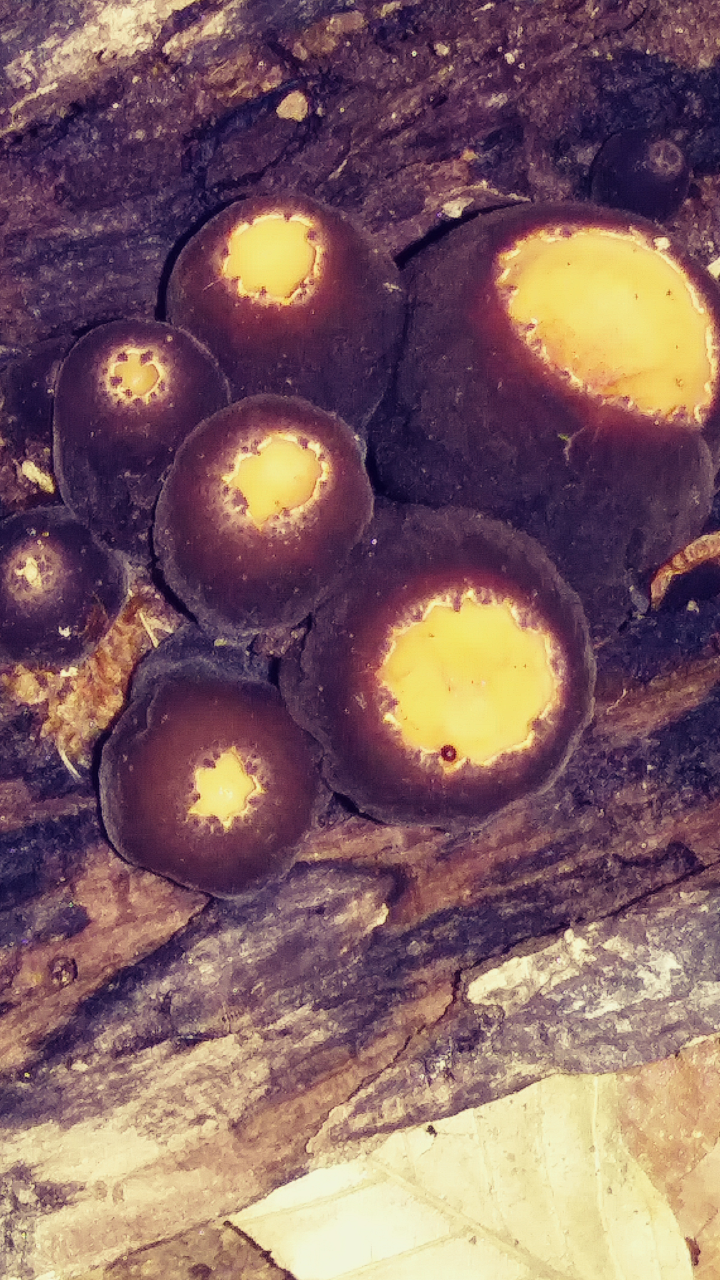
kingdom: Fungi
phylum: Ascomycota
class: Pezizomycetes
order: Pezizales
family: Sarcosomataceae
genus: Galiella
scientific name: Galiella rufa
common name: Hairy rubber cup
